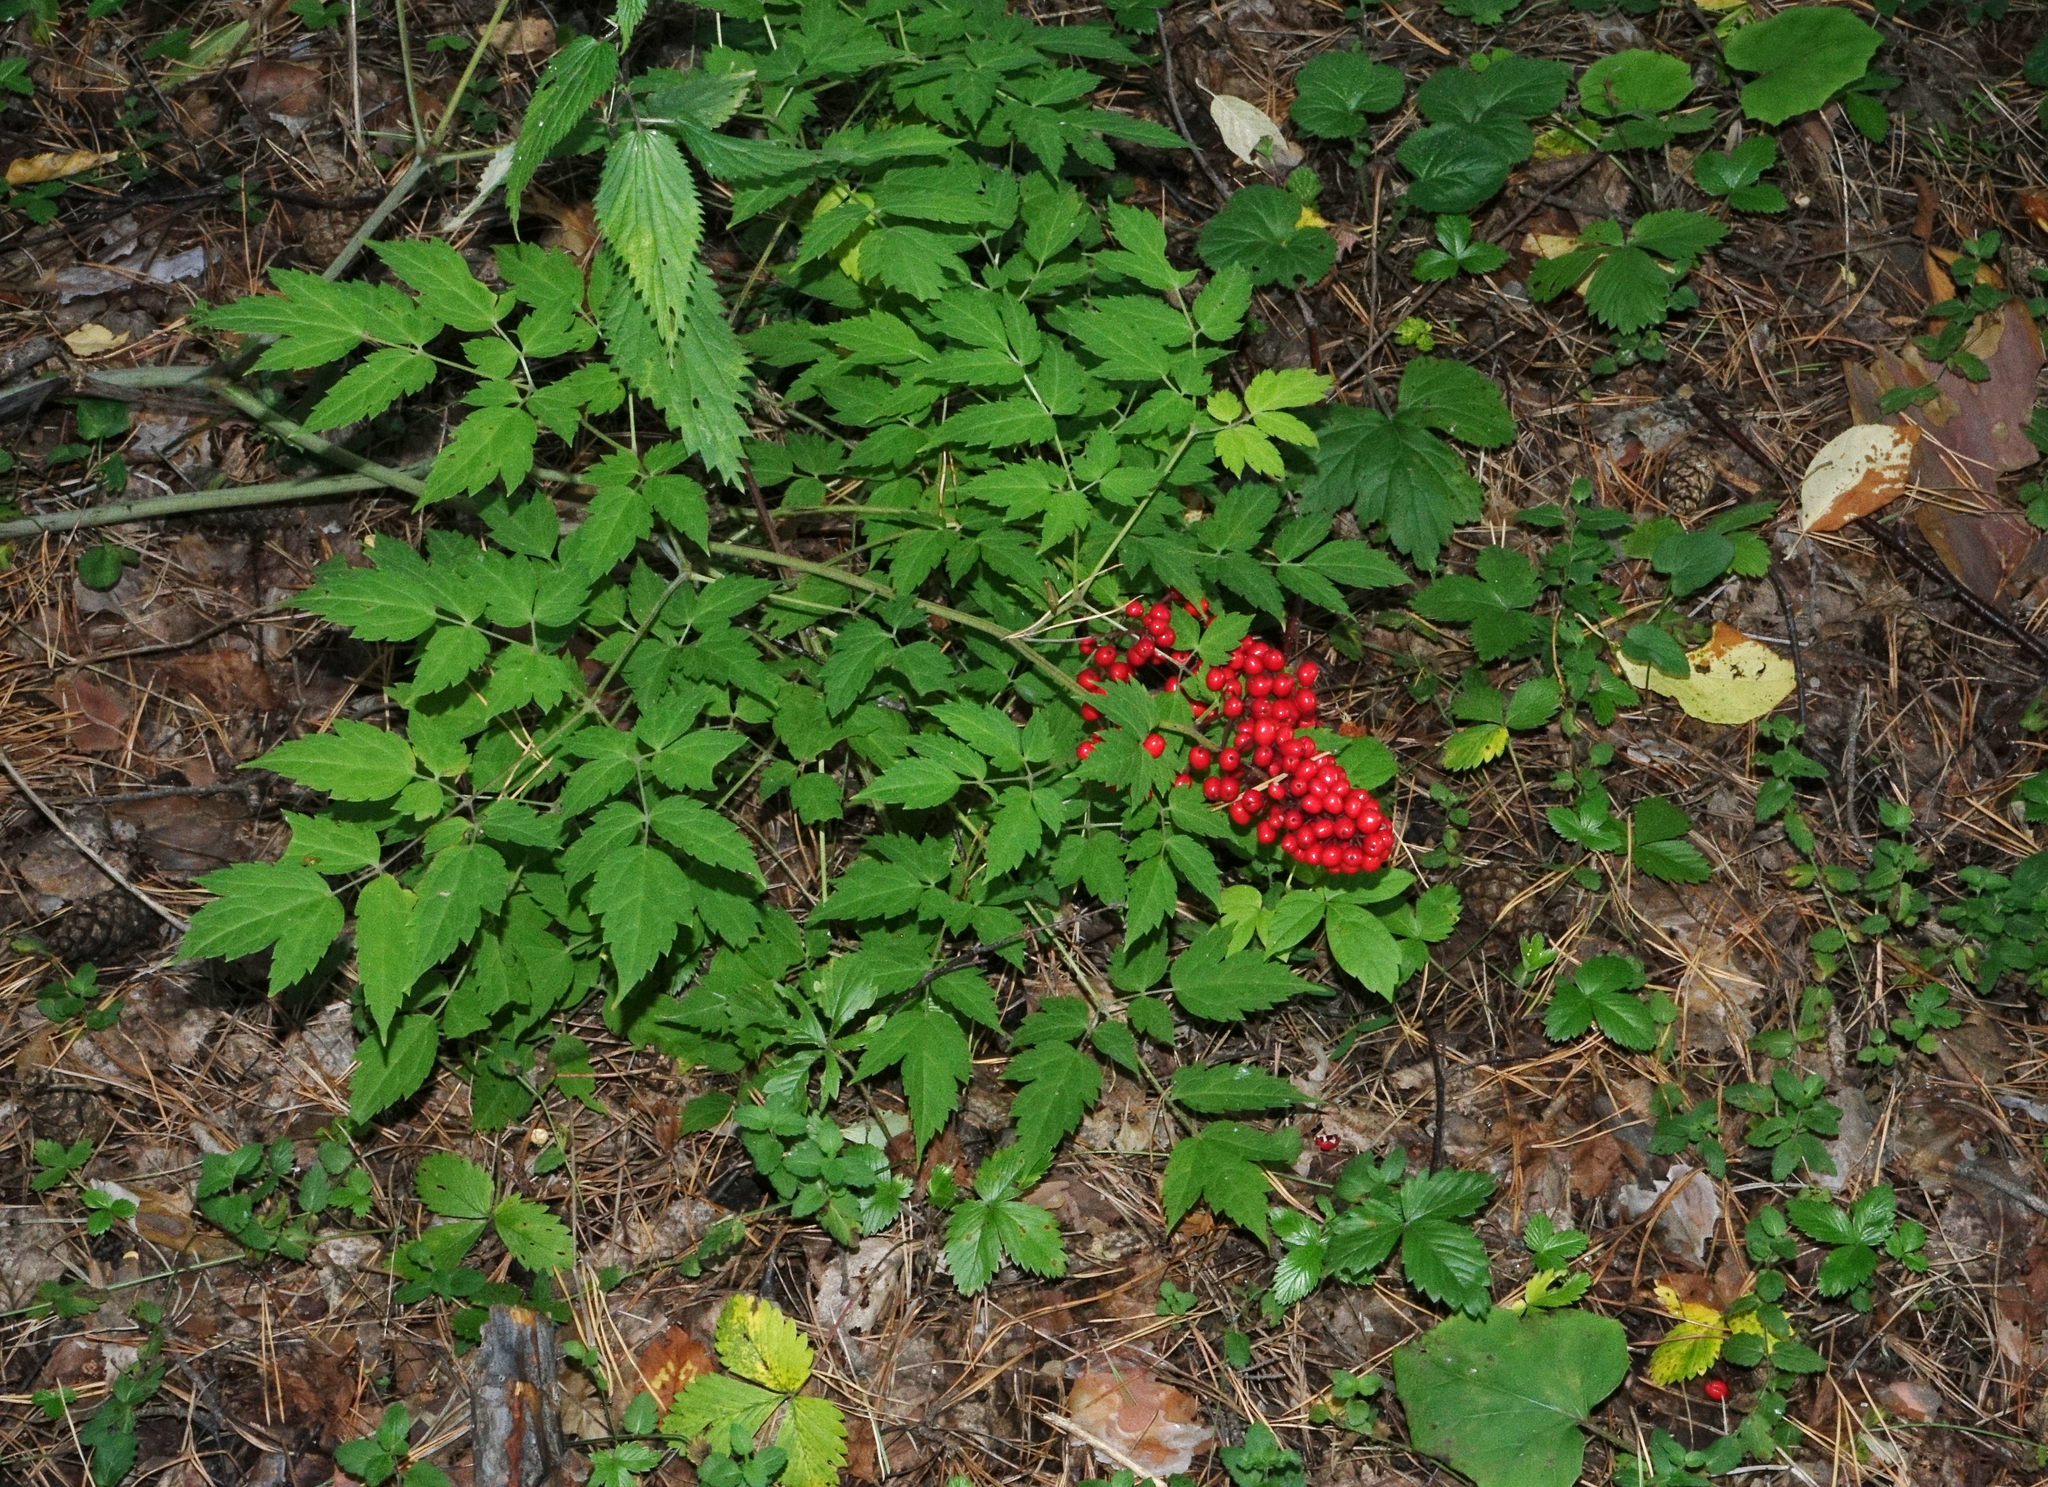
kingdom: Plantae
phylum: Tracheophyta
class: Magnoliopsida
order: Ranunculales
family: Ranunculaceae
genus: Actaea
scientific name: Actaea erythrocarpa
